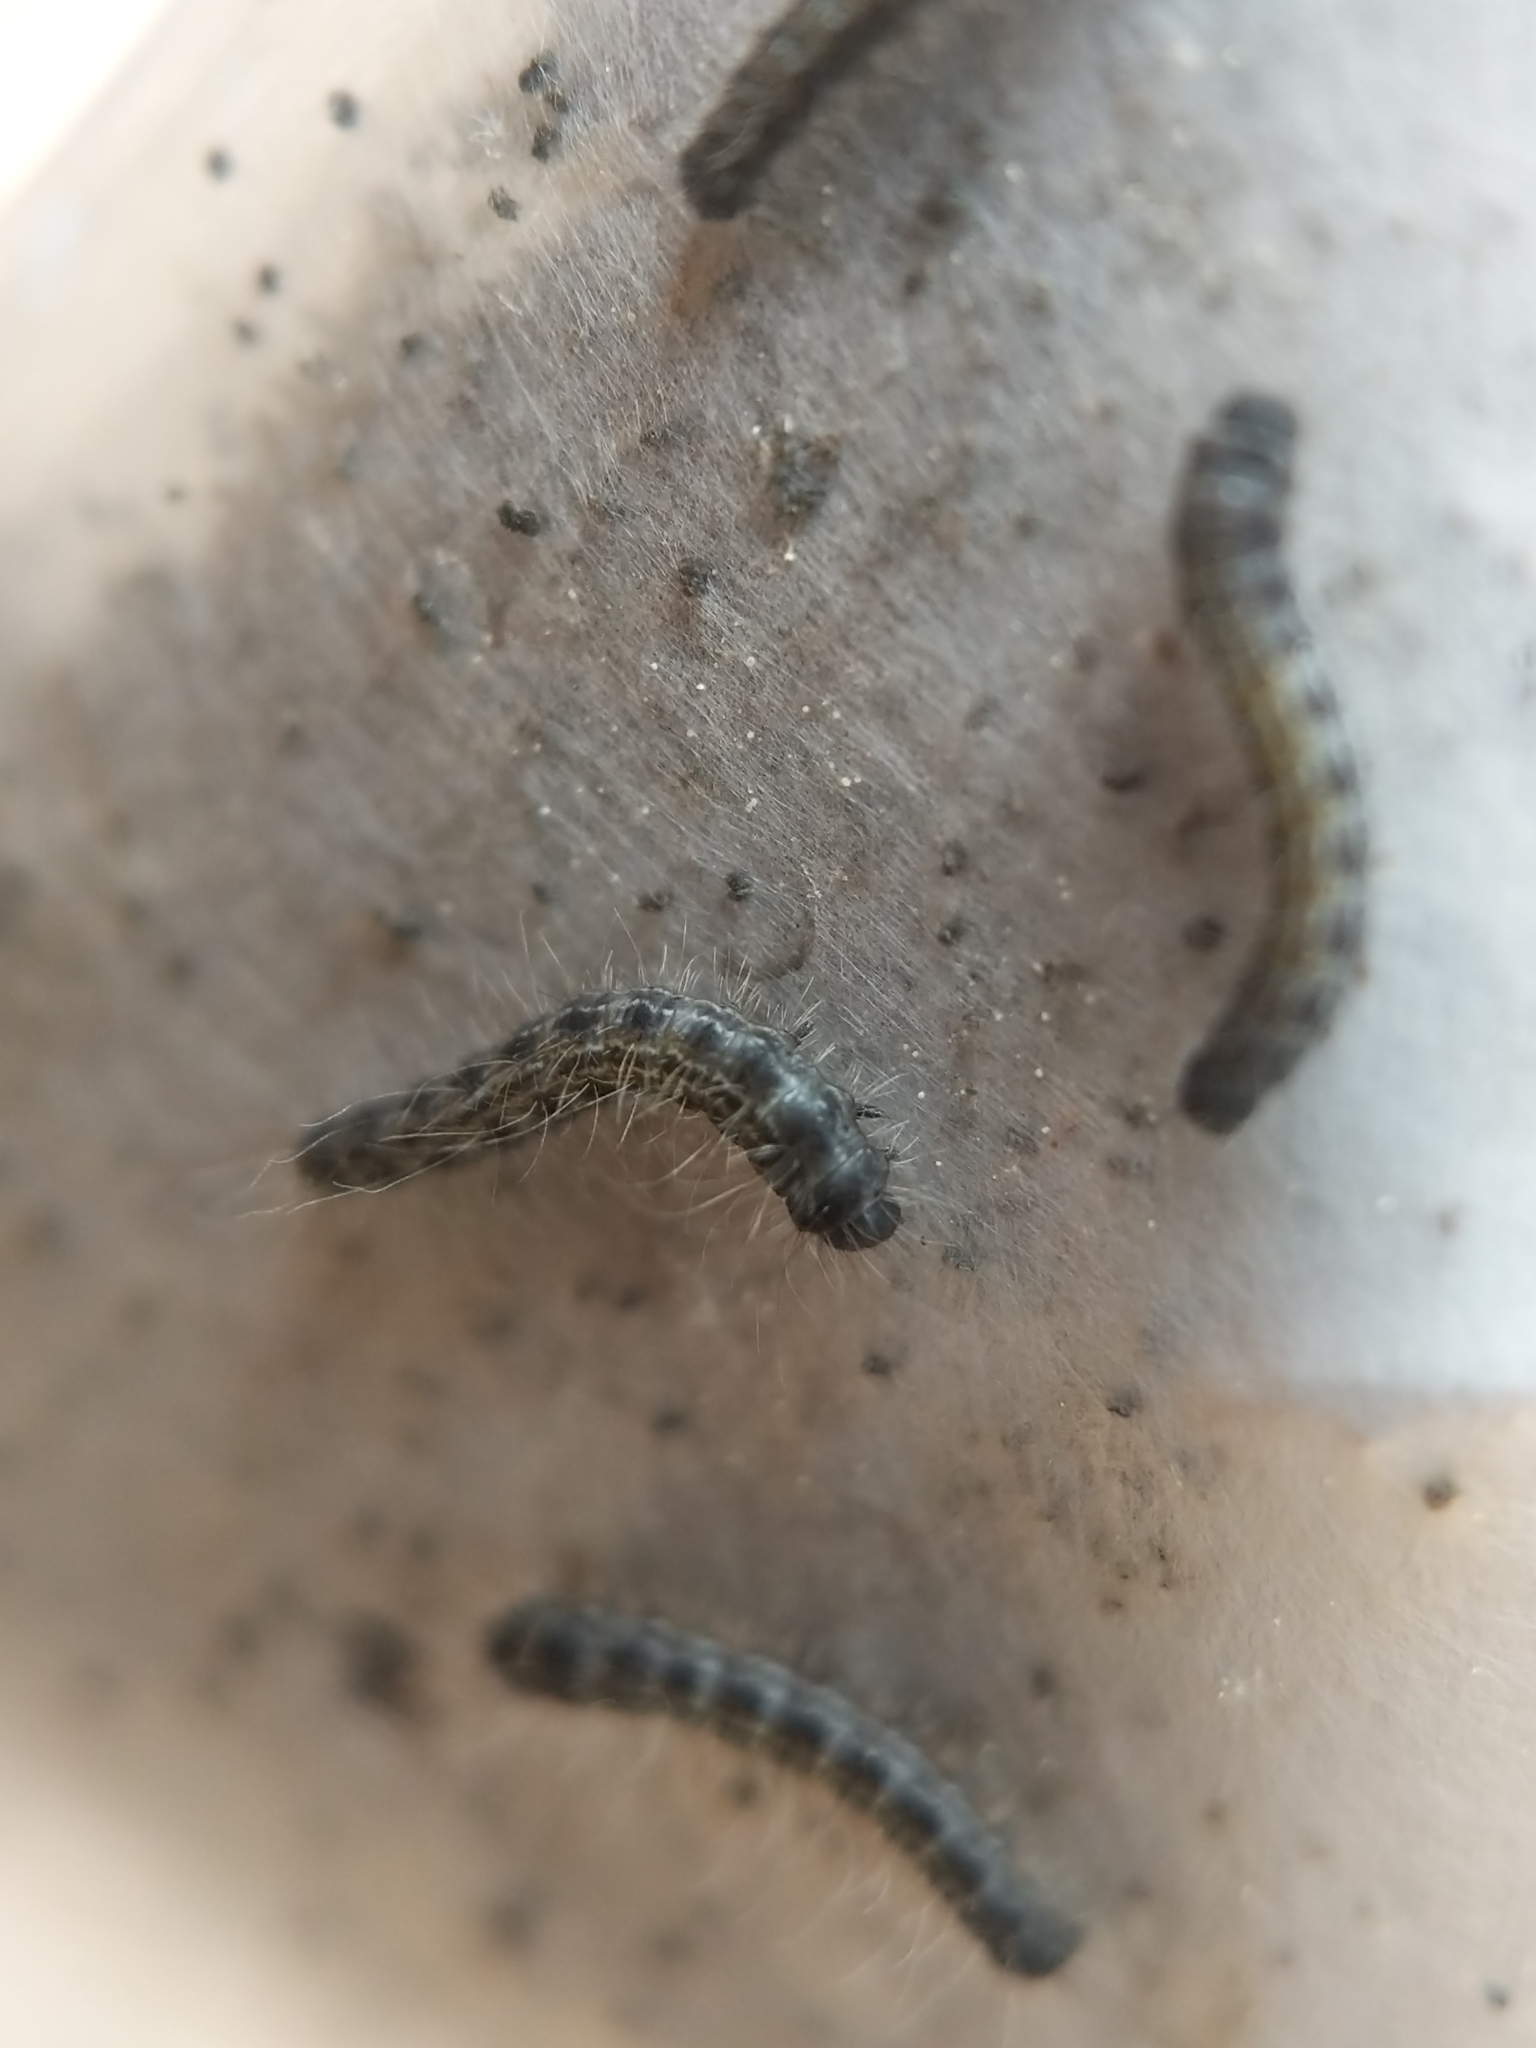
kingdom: Animalia
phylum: Arthropoda
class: Insecta
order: Lepidoptera
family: Lasiocampidae
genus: Malacosoma
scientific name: Malacosoma americana
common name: Eastern tent caterpillar moth
